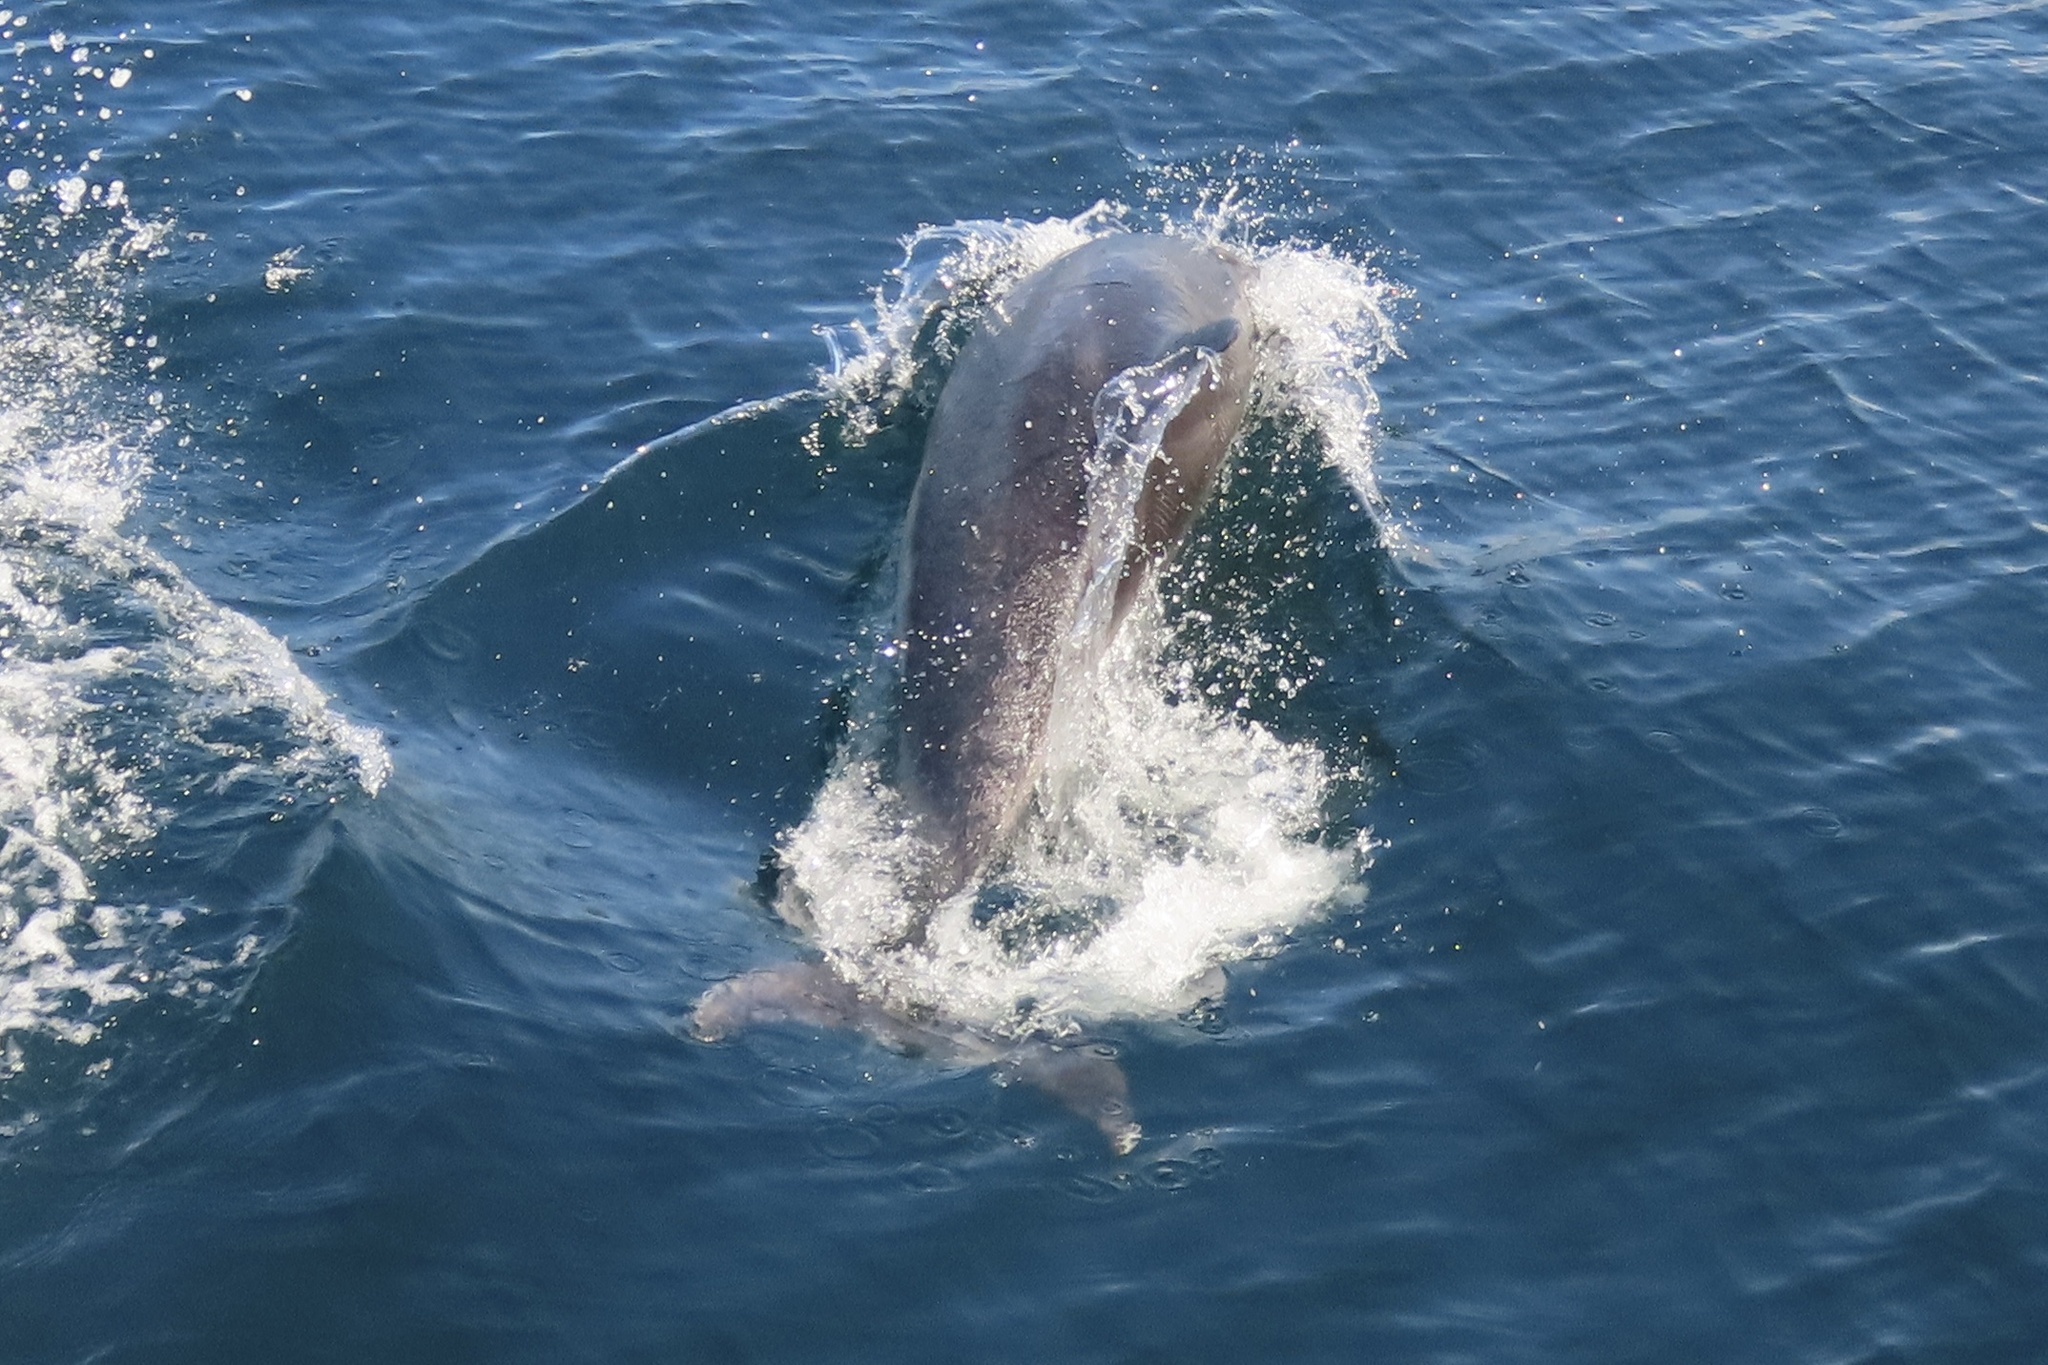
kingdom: Animalia
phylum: Chordata
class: Mammalia
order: Cetacea
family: Delphinidae
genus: Tursiops
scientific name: Tursiops truncatus
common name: Bottlenose dolphin
